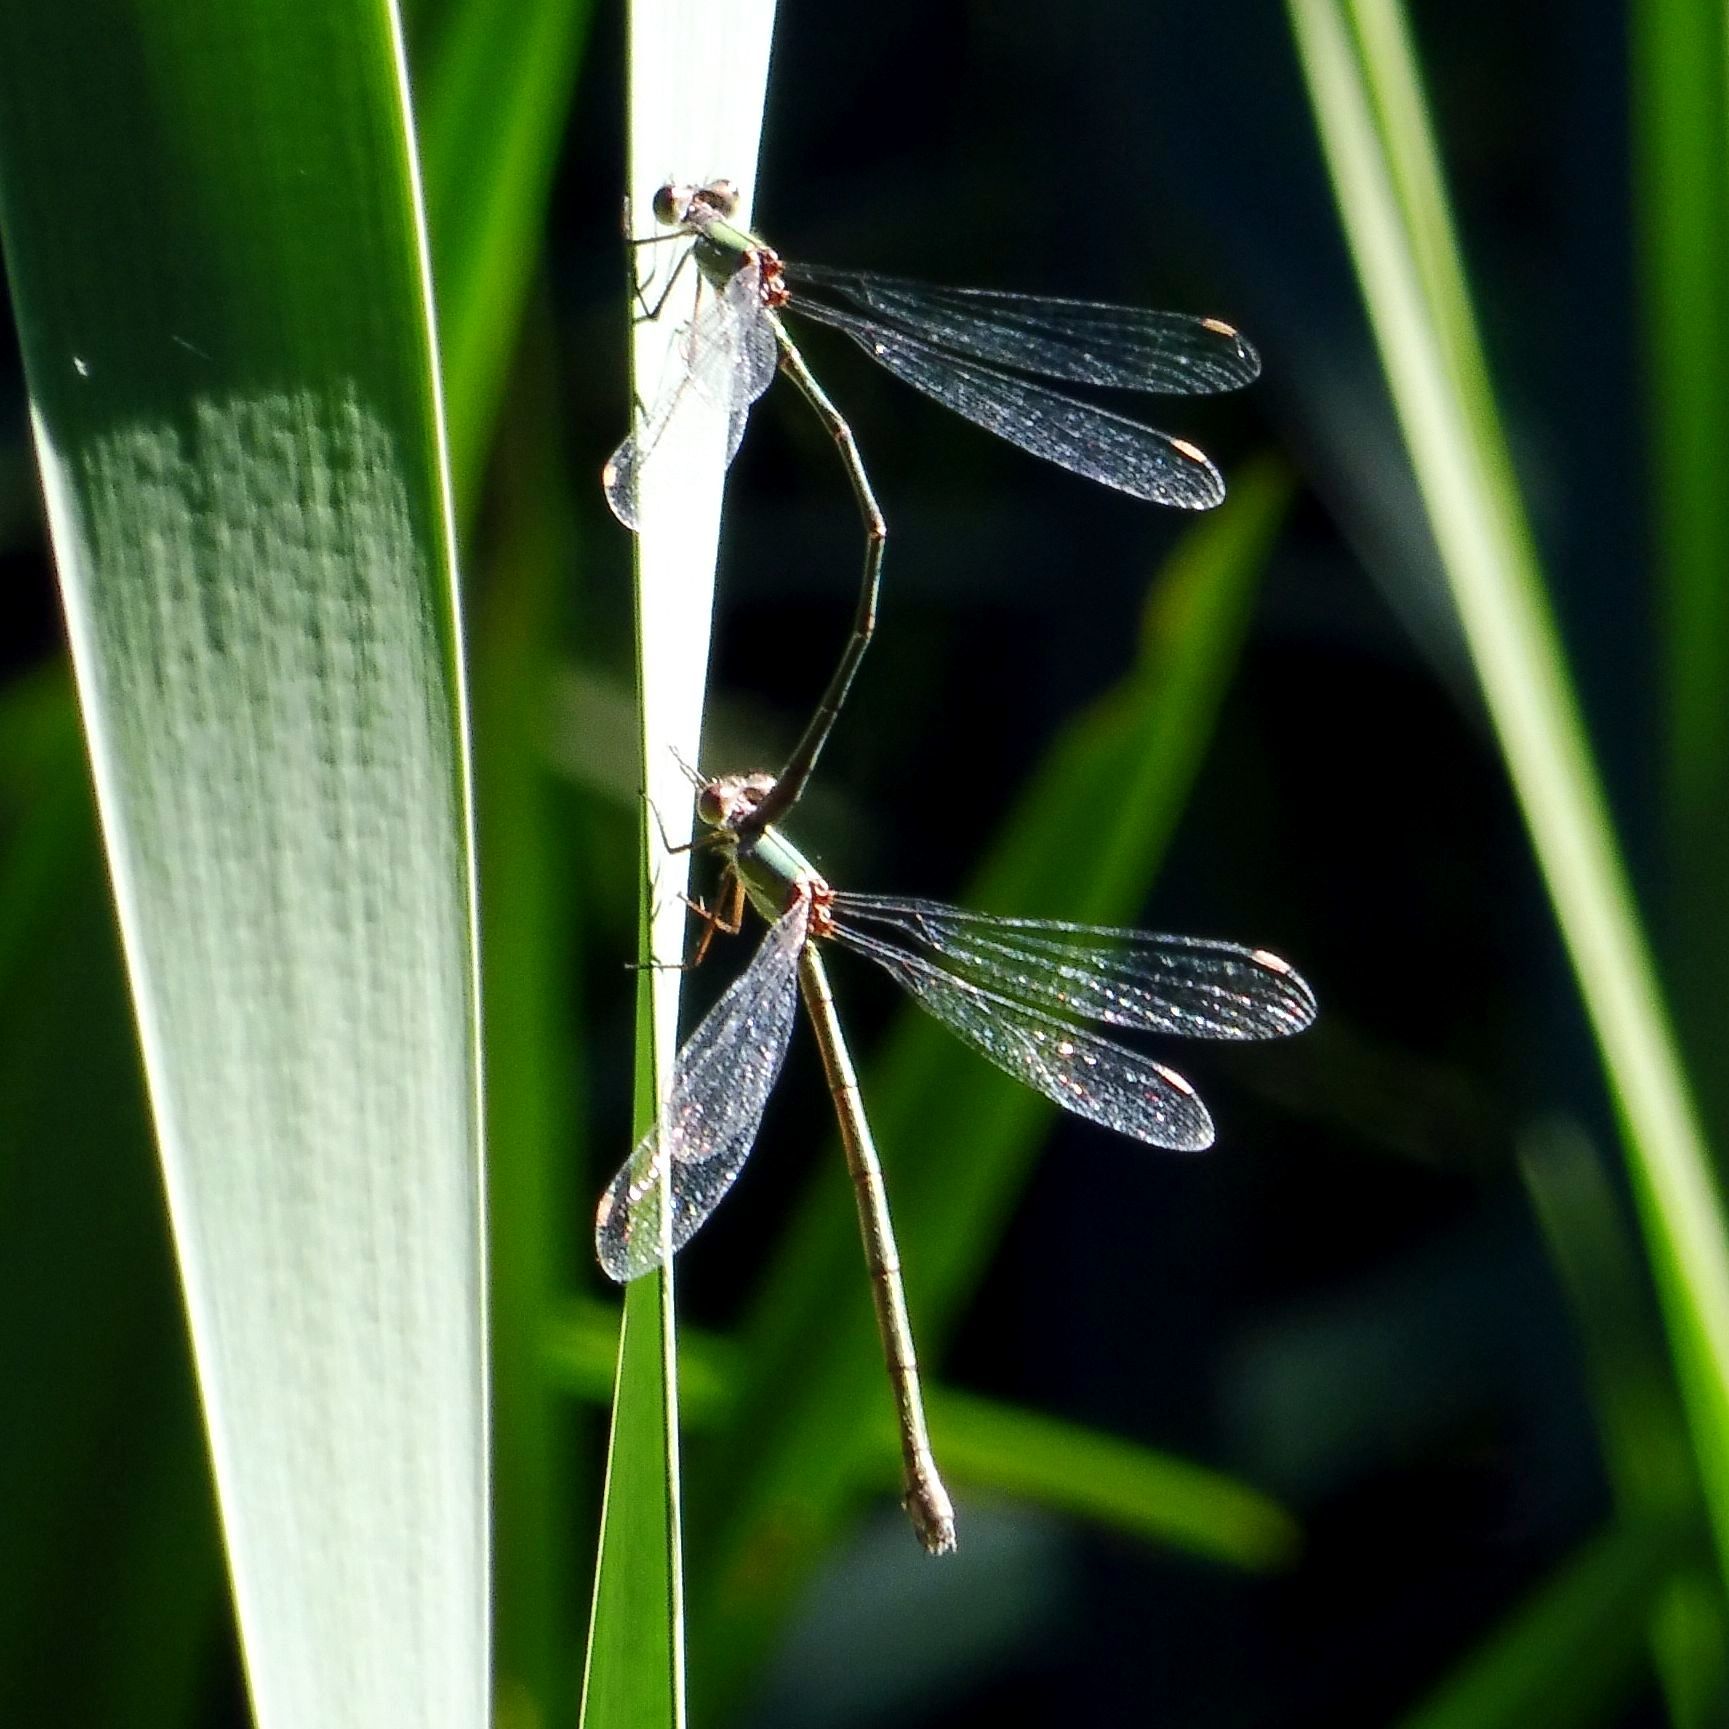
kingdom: Animalia
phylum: Arthropoda
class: Insecta
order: Odonata
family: Lestidae
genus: Chalcolestes
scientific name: Chalcolestes viridis
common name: Green emerald damselfly
